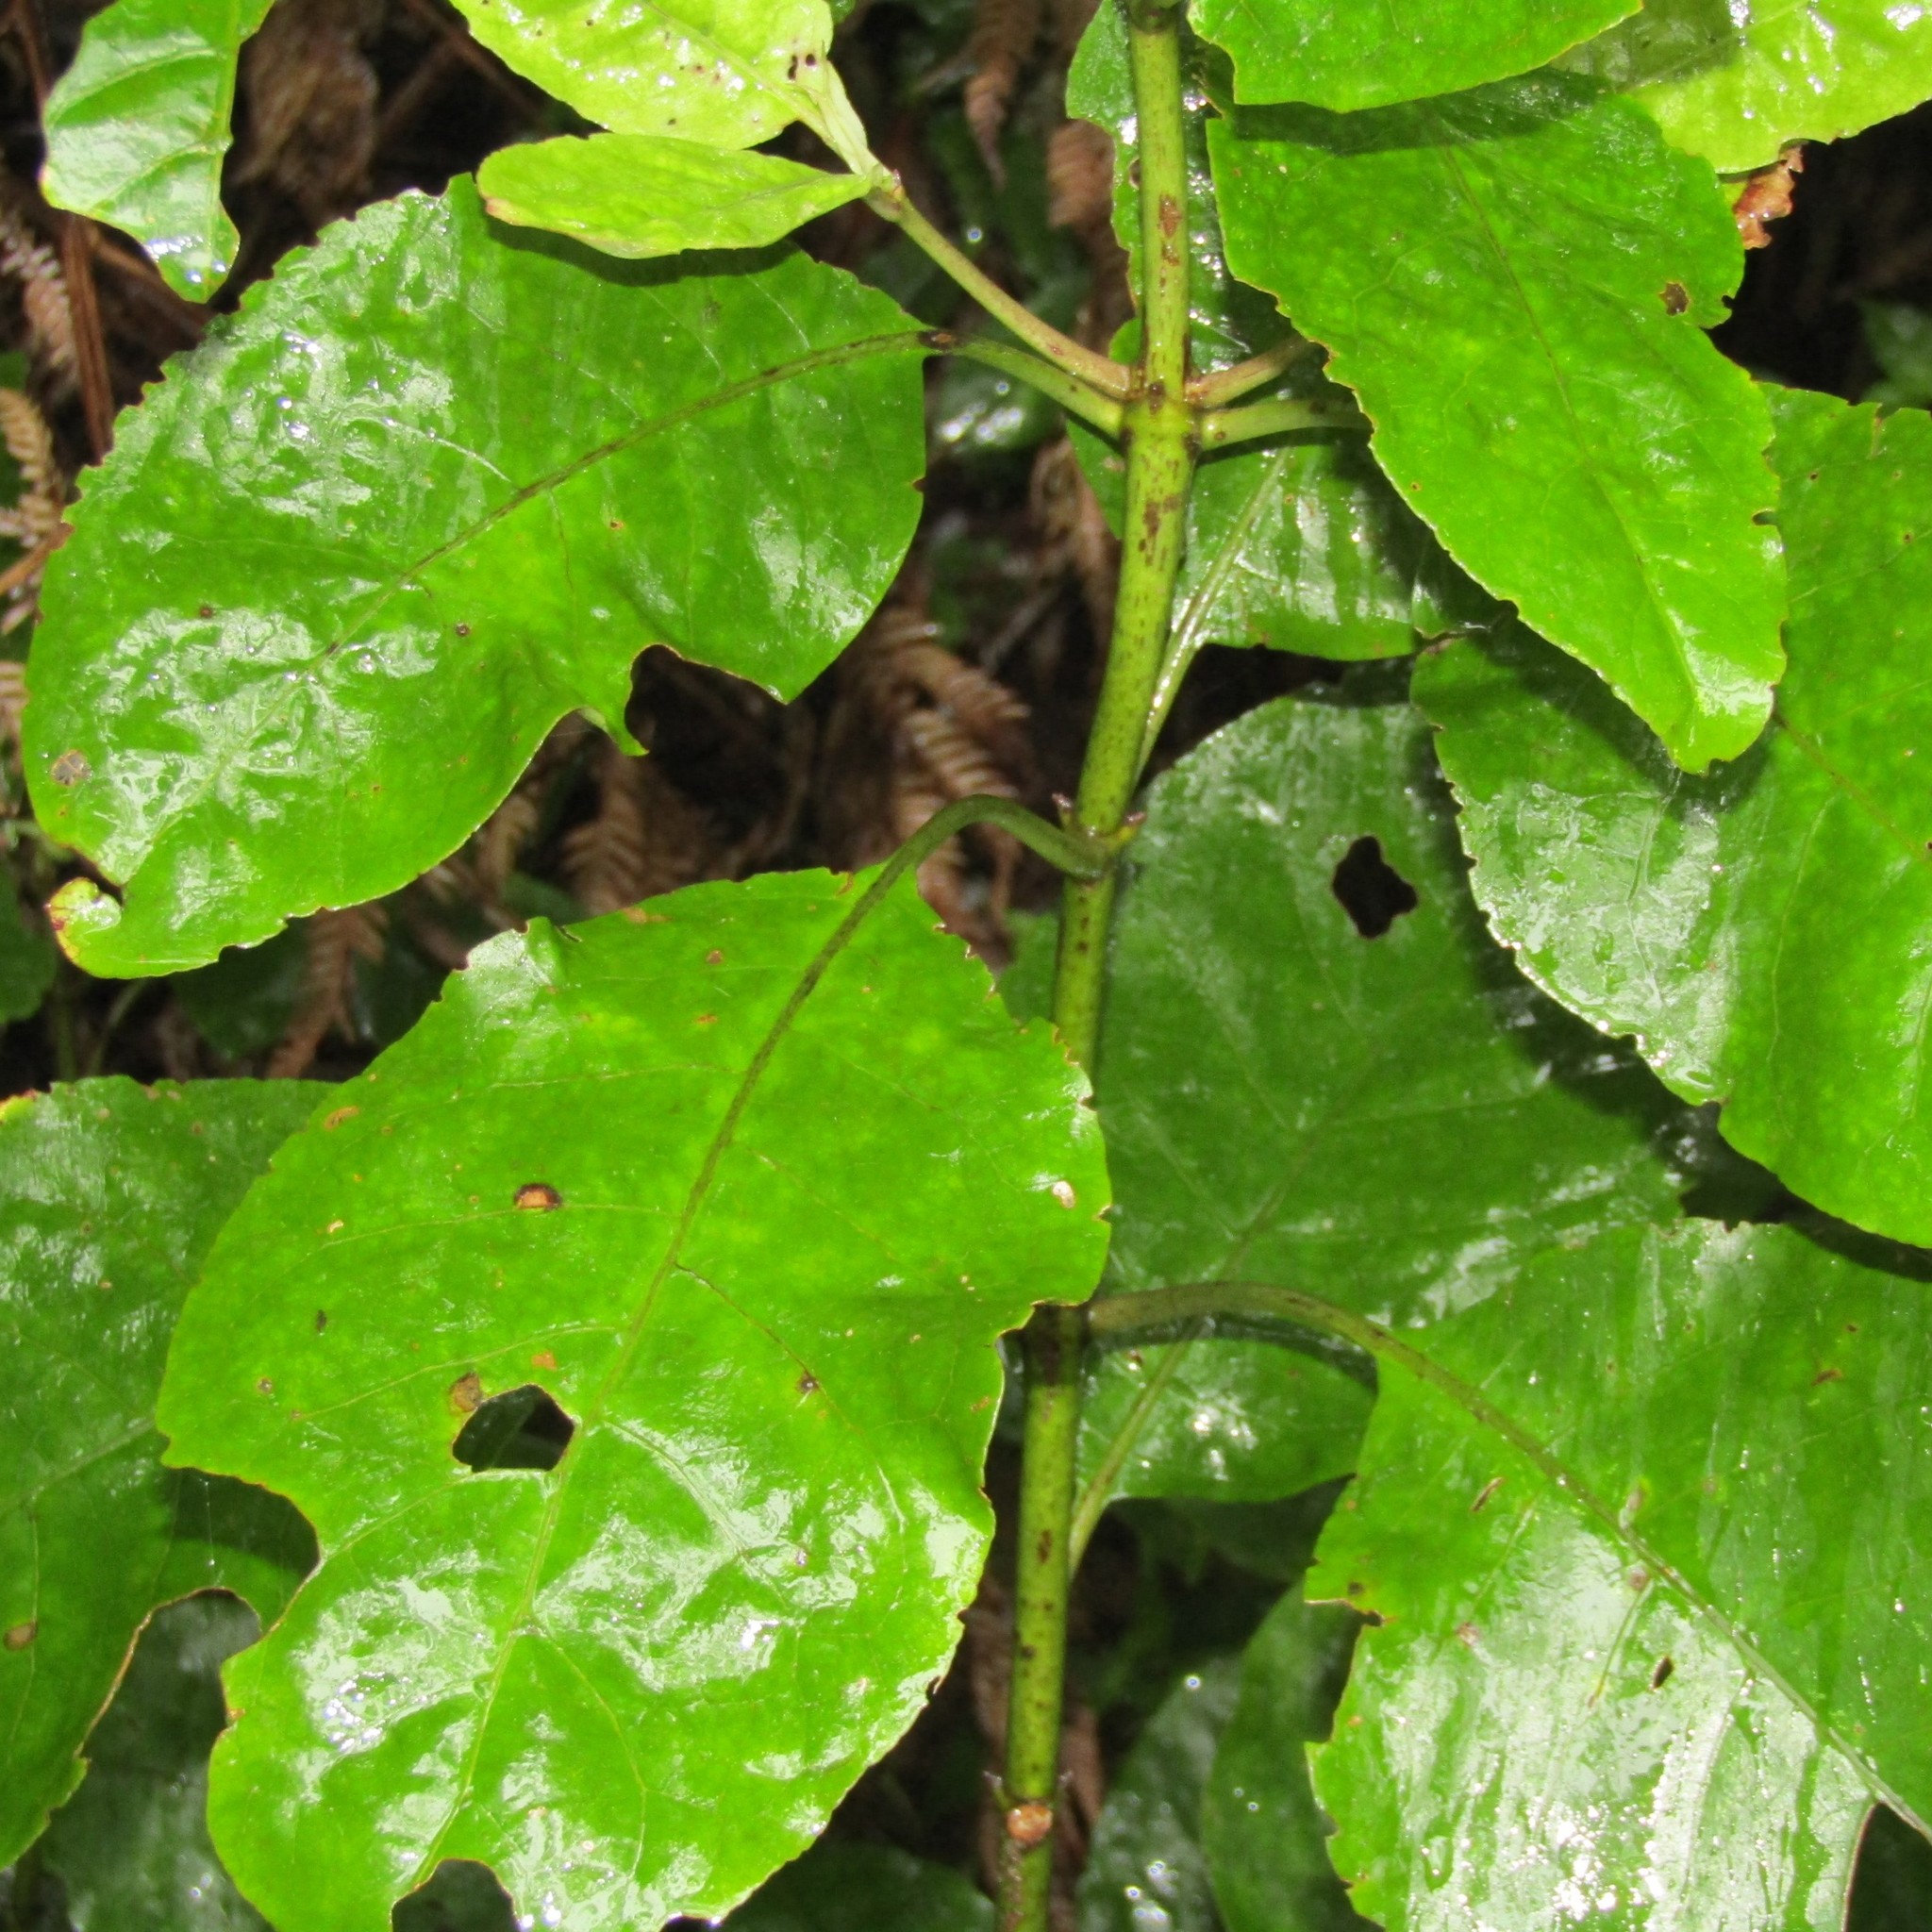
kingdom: Plantae
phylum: Tracheophyta
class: Magnoliopsida
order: Gentianales
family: Rubiaceae
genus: Coprosma
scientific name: Coprosma autumnalis
